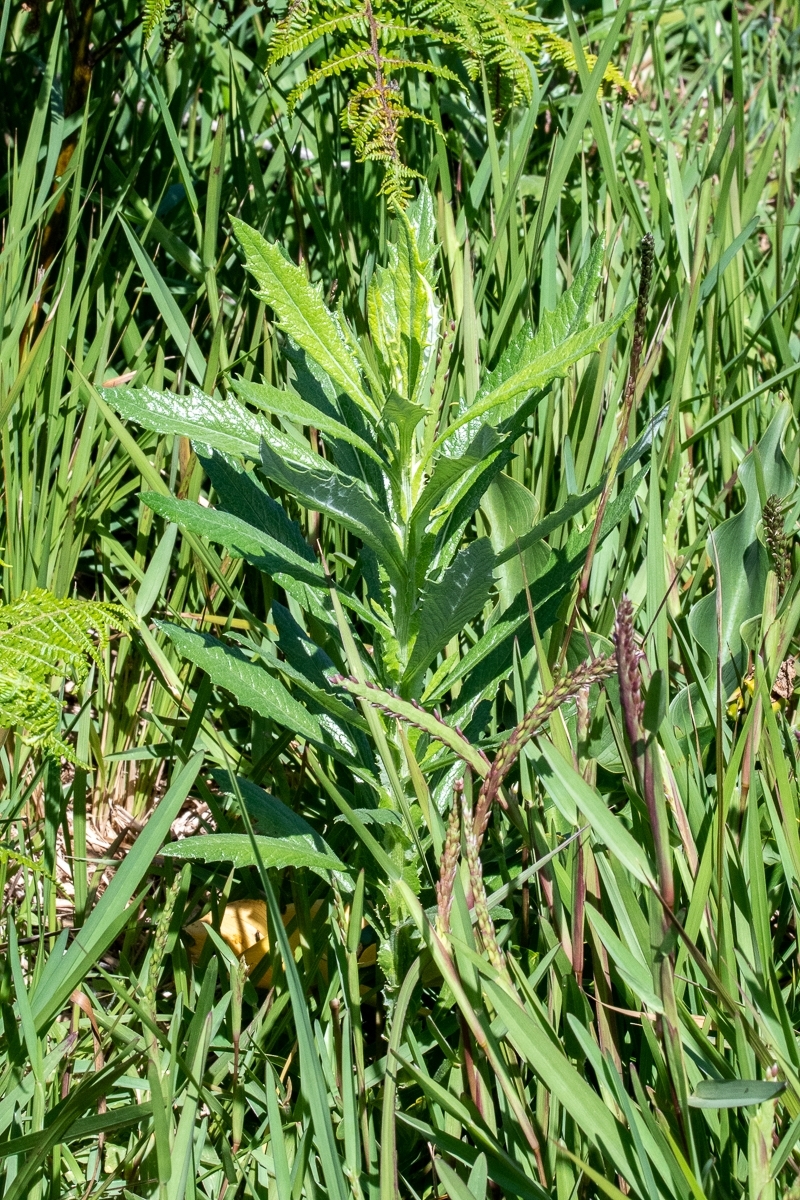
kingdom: Plantae
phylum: Tracheophyta
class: Magnoliopsida
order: Asterales
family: Asteraceae
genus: Senecio
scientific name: Senecio pterophorus
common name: Shoddy ragwort
